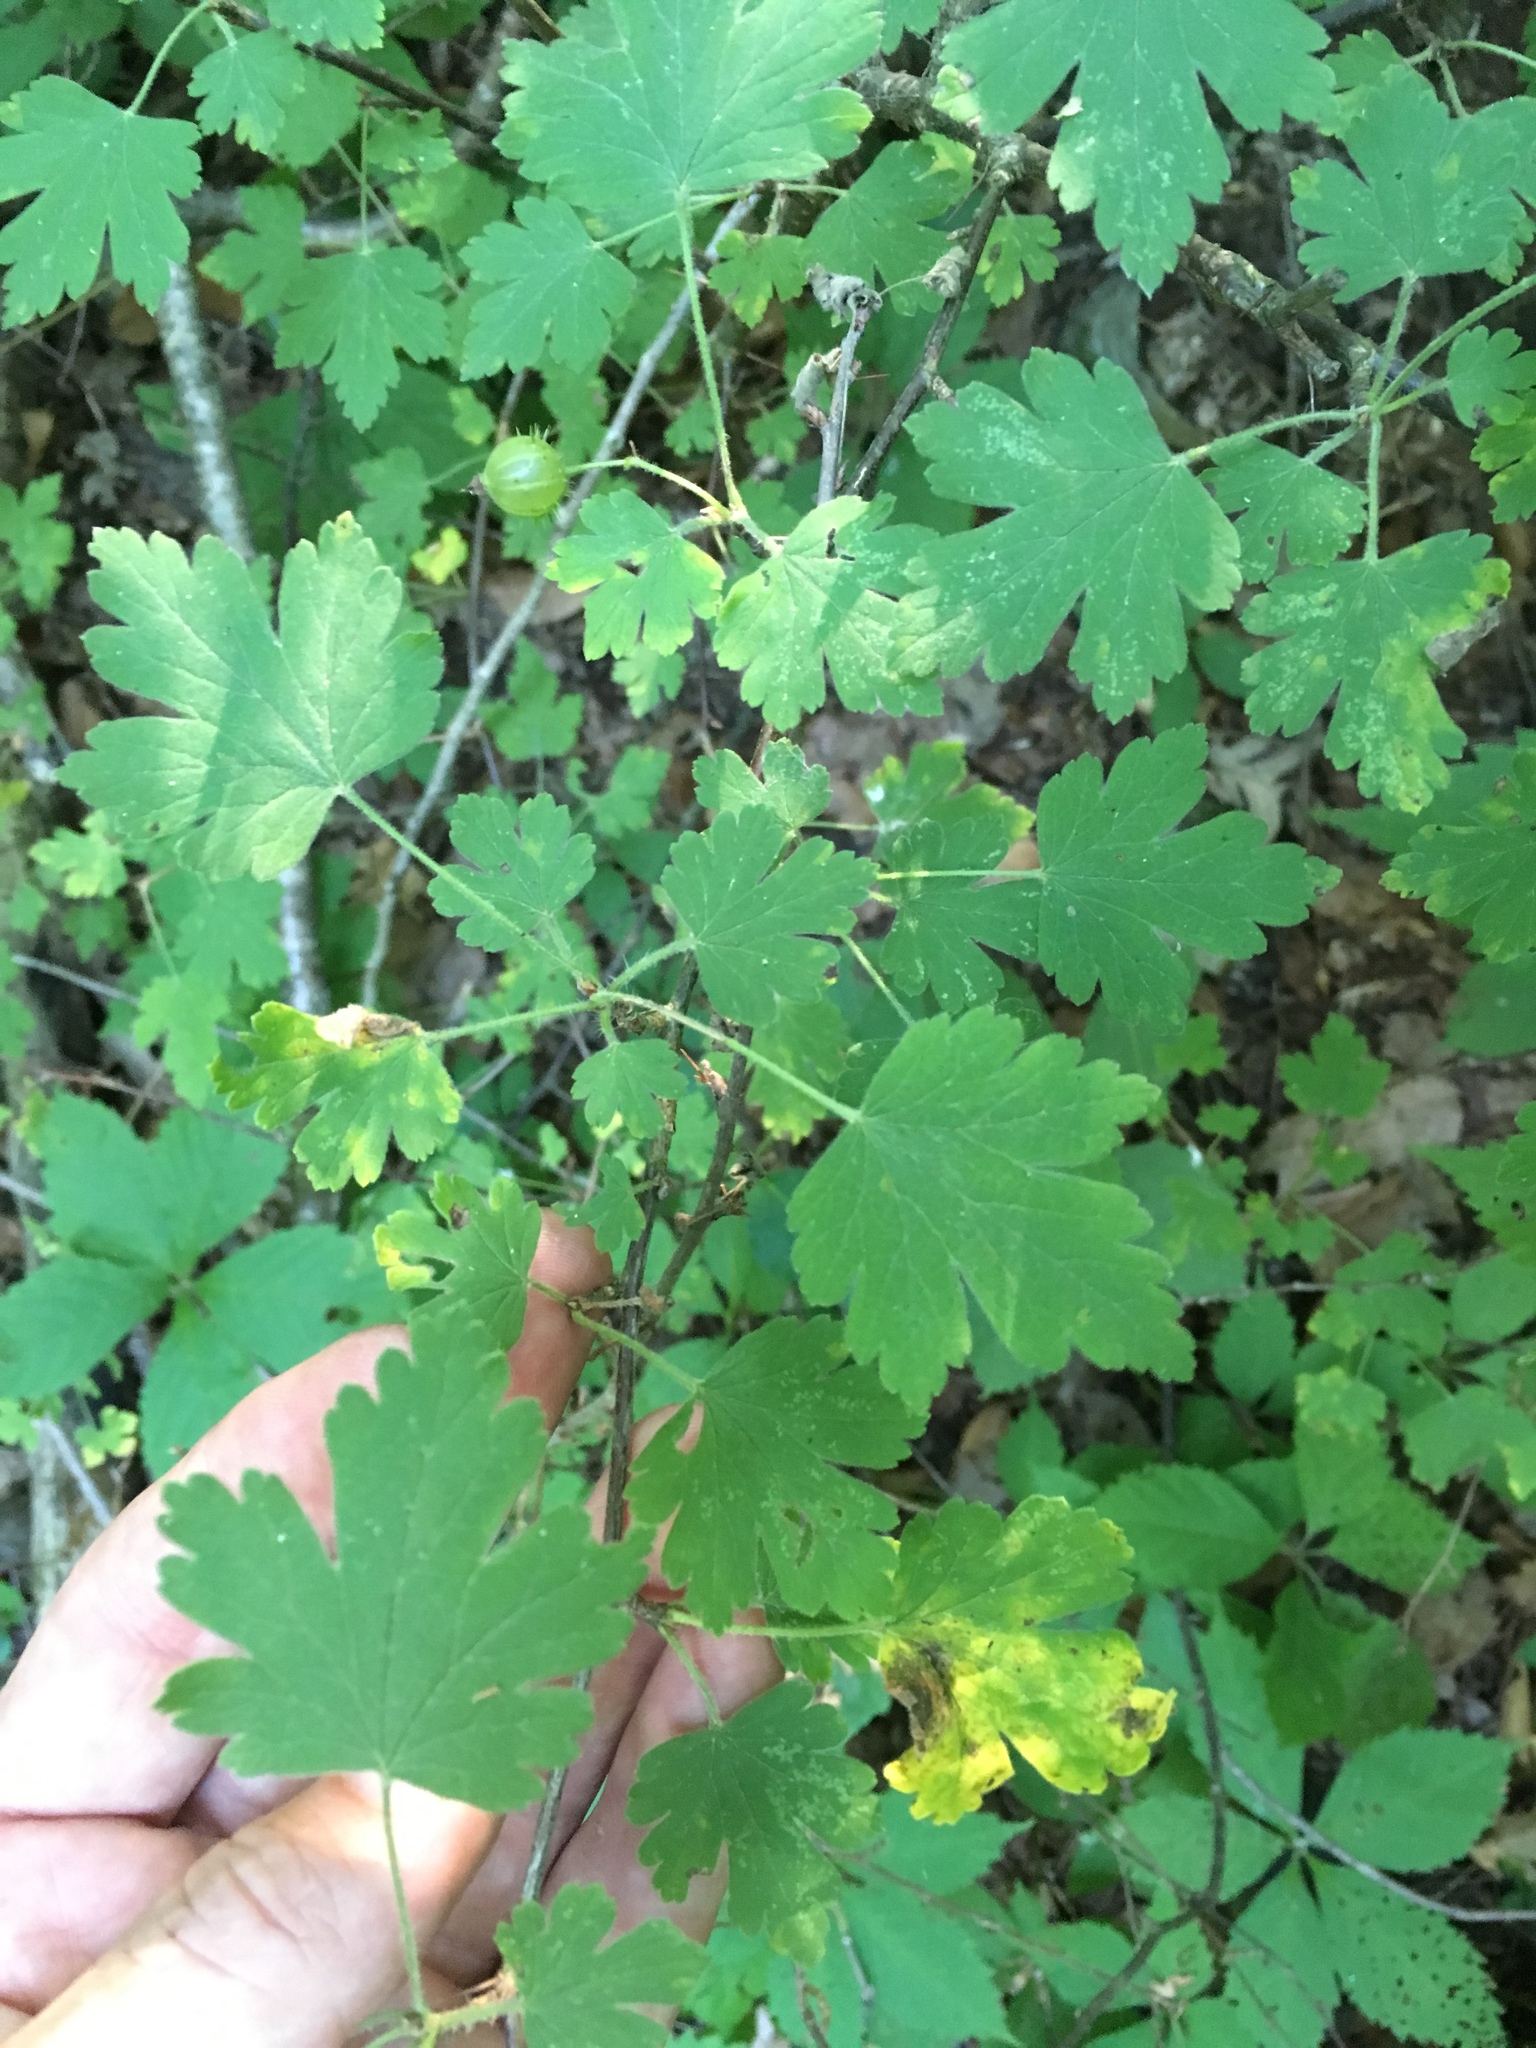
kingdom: Plantae
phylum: Tracheophyta
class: Magnoliopsida
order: Saxifragales
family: Grossulariaceae
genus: Ribes
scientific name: Ribes cynosbati
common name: American gooseberry
